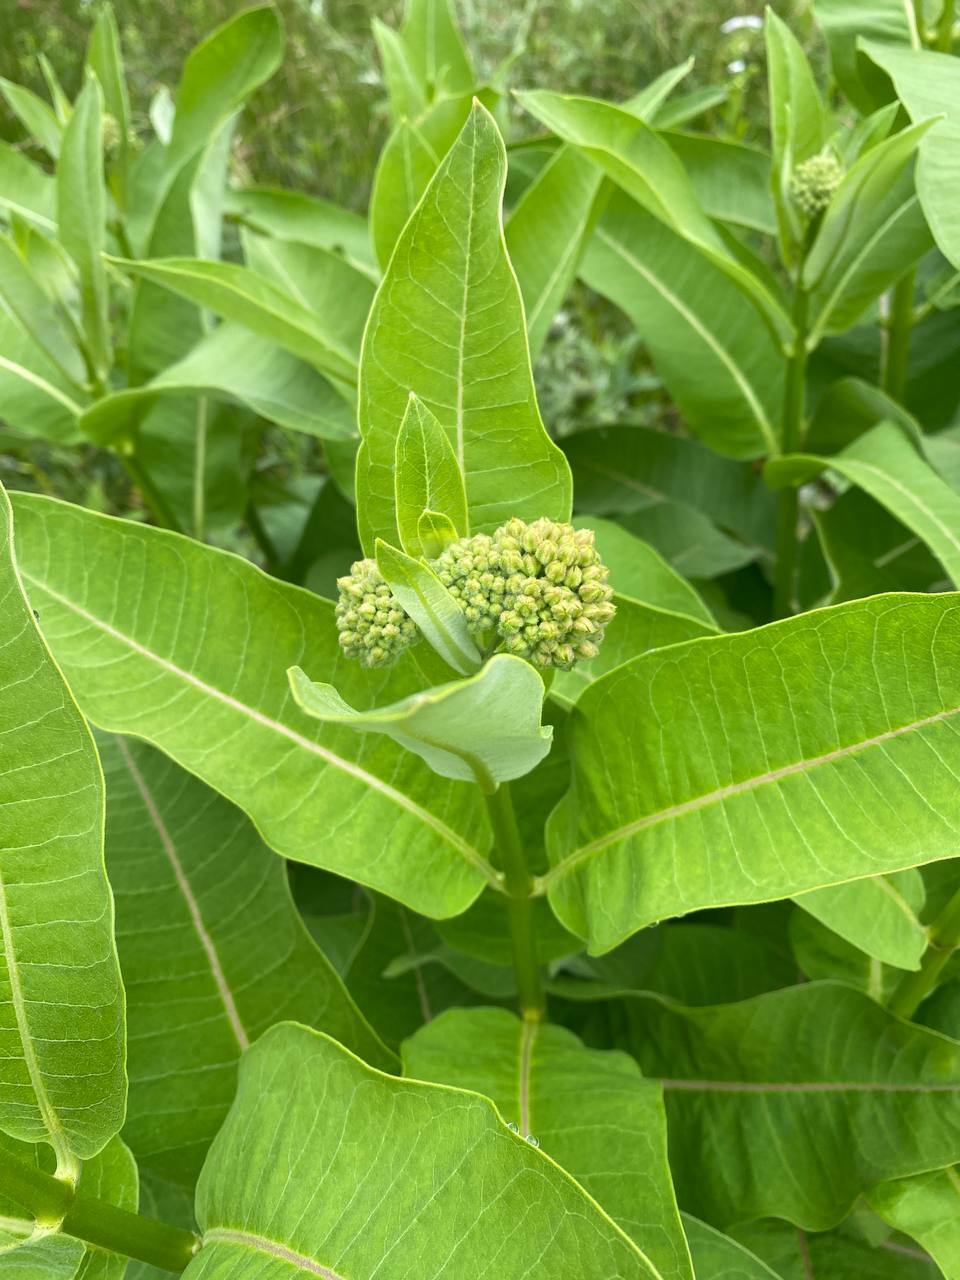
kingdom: Plantae
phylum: Tracheophyta
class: Magnoliopsida
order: Gentianales
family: Apocynaceae
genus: Asclepias
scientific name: Asclepias syriaca
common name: Common milkweed
